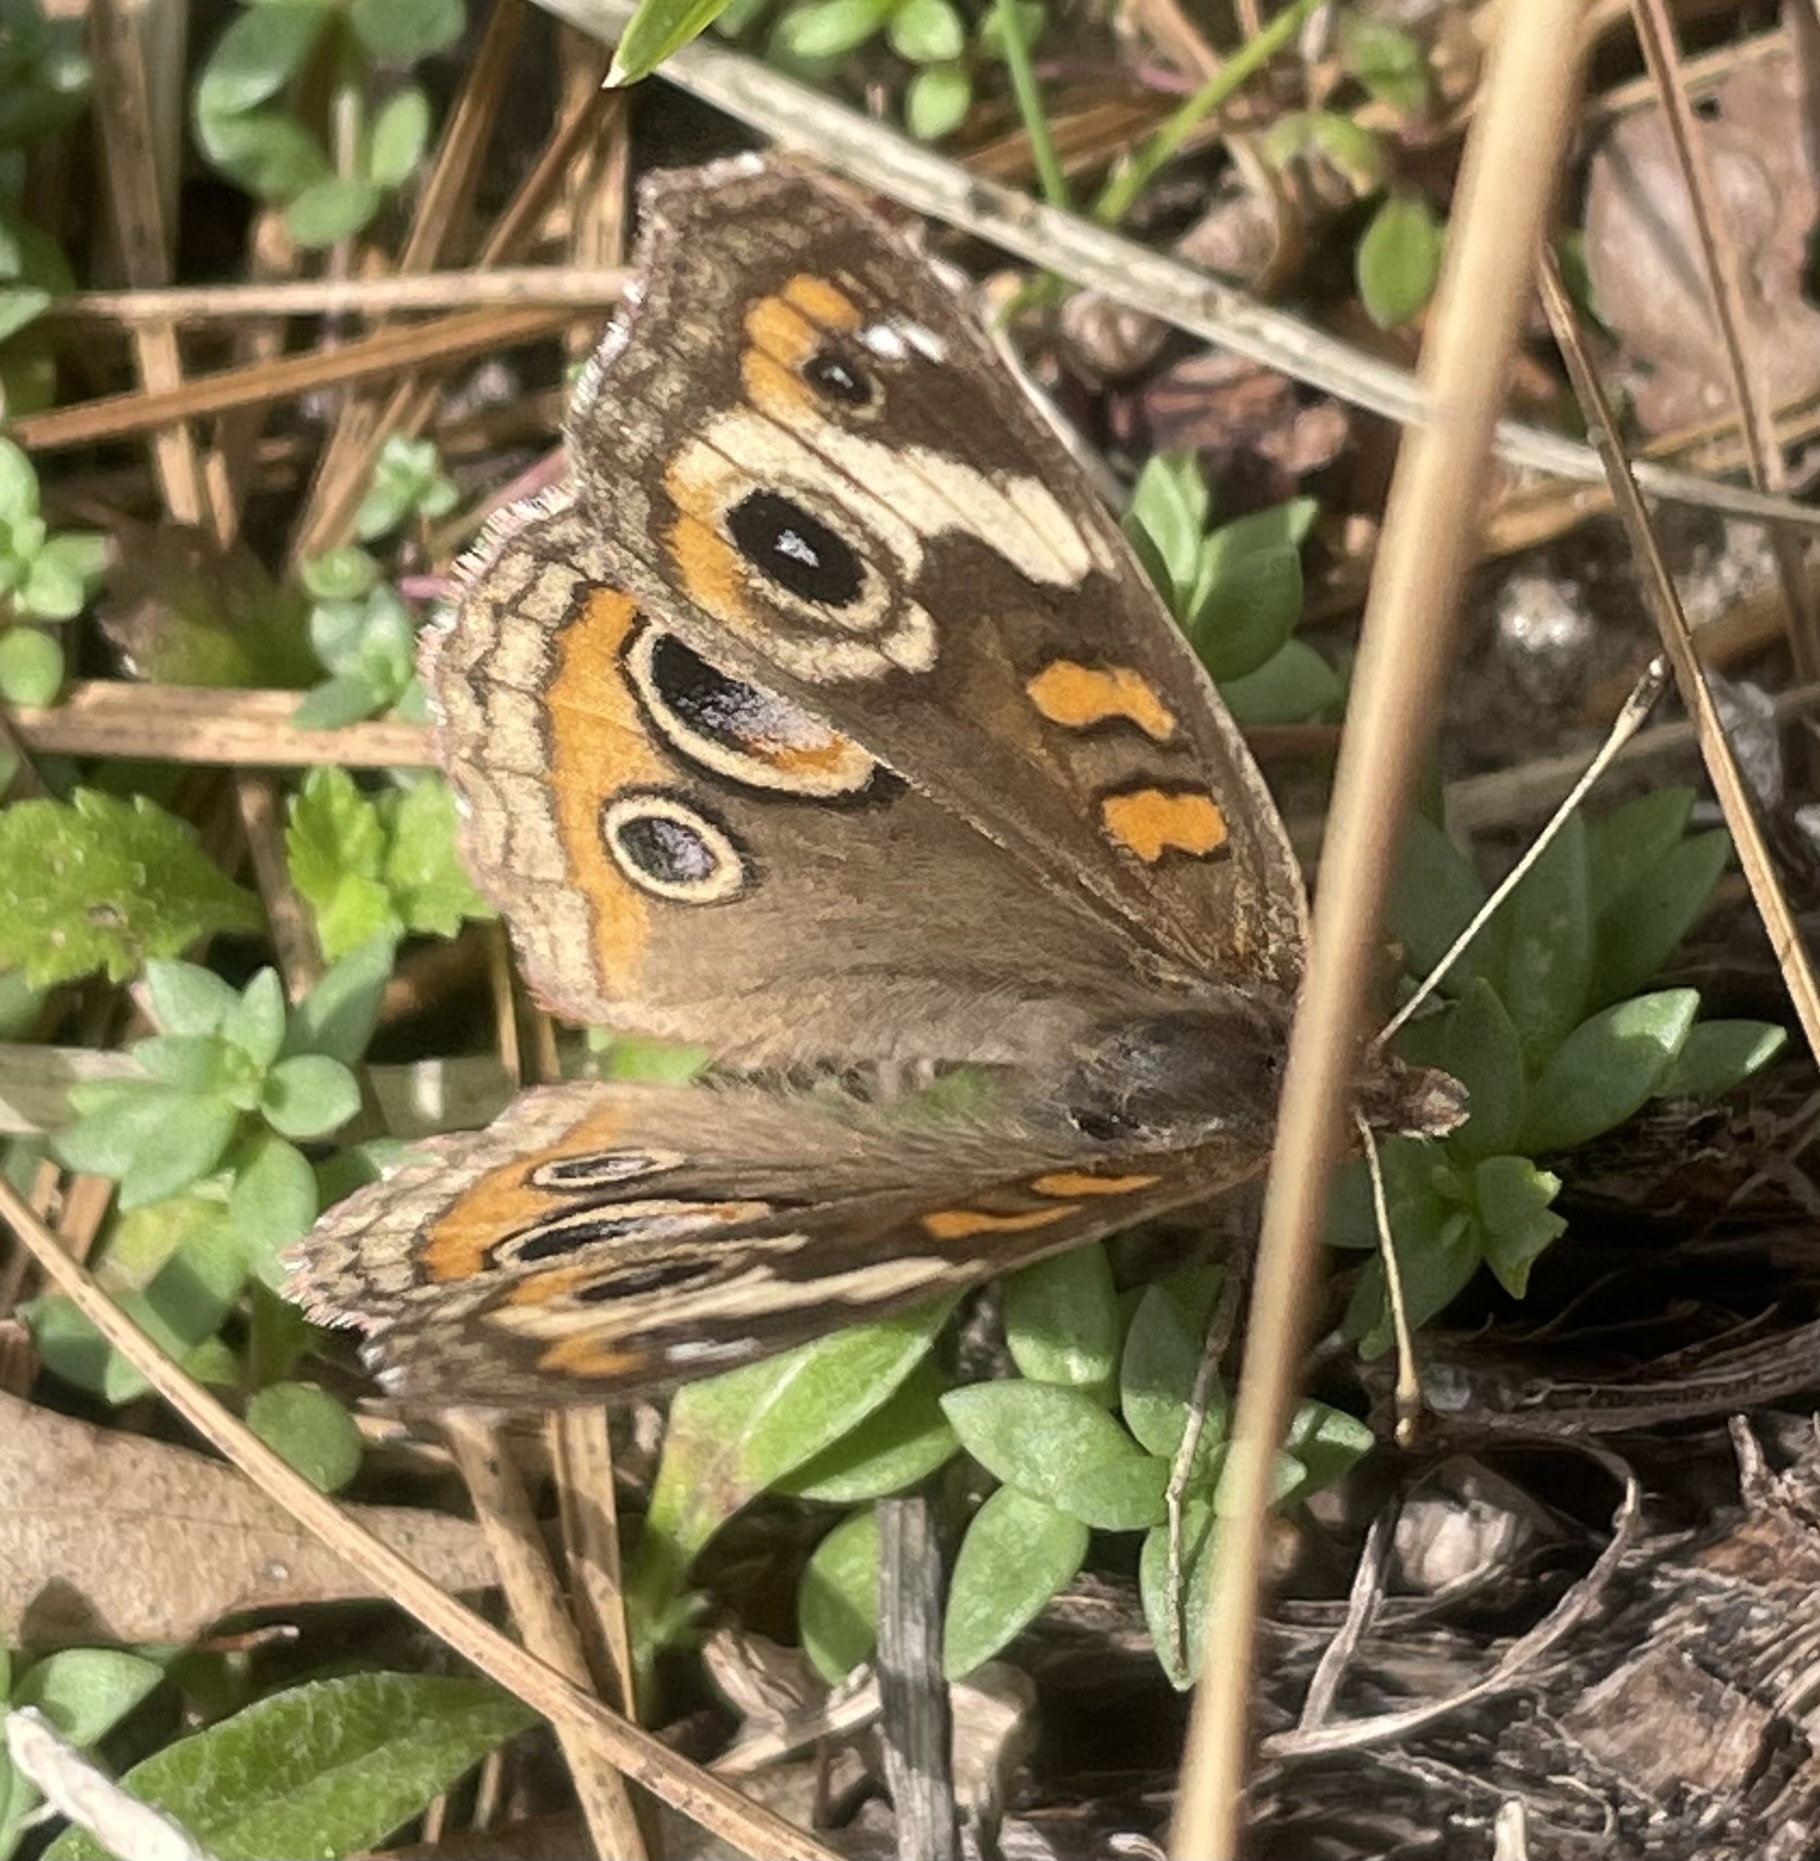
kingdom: Animalia
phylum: Arthropoda
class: Insecta
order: Lepidoptera
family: Nymphalidae
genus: Junonia
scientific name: Junonia coenia
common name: Common buckeye
